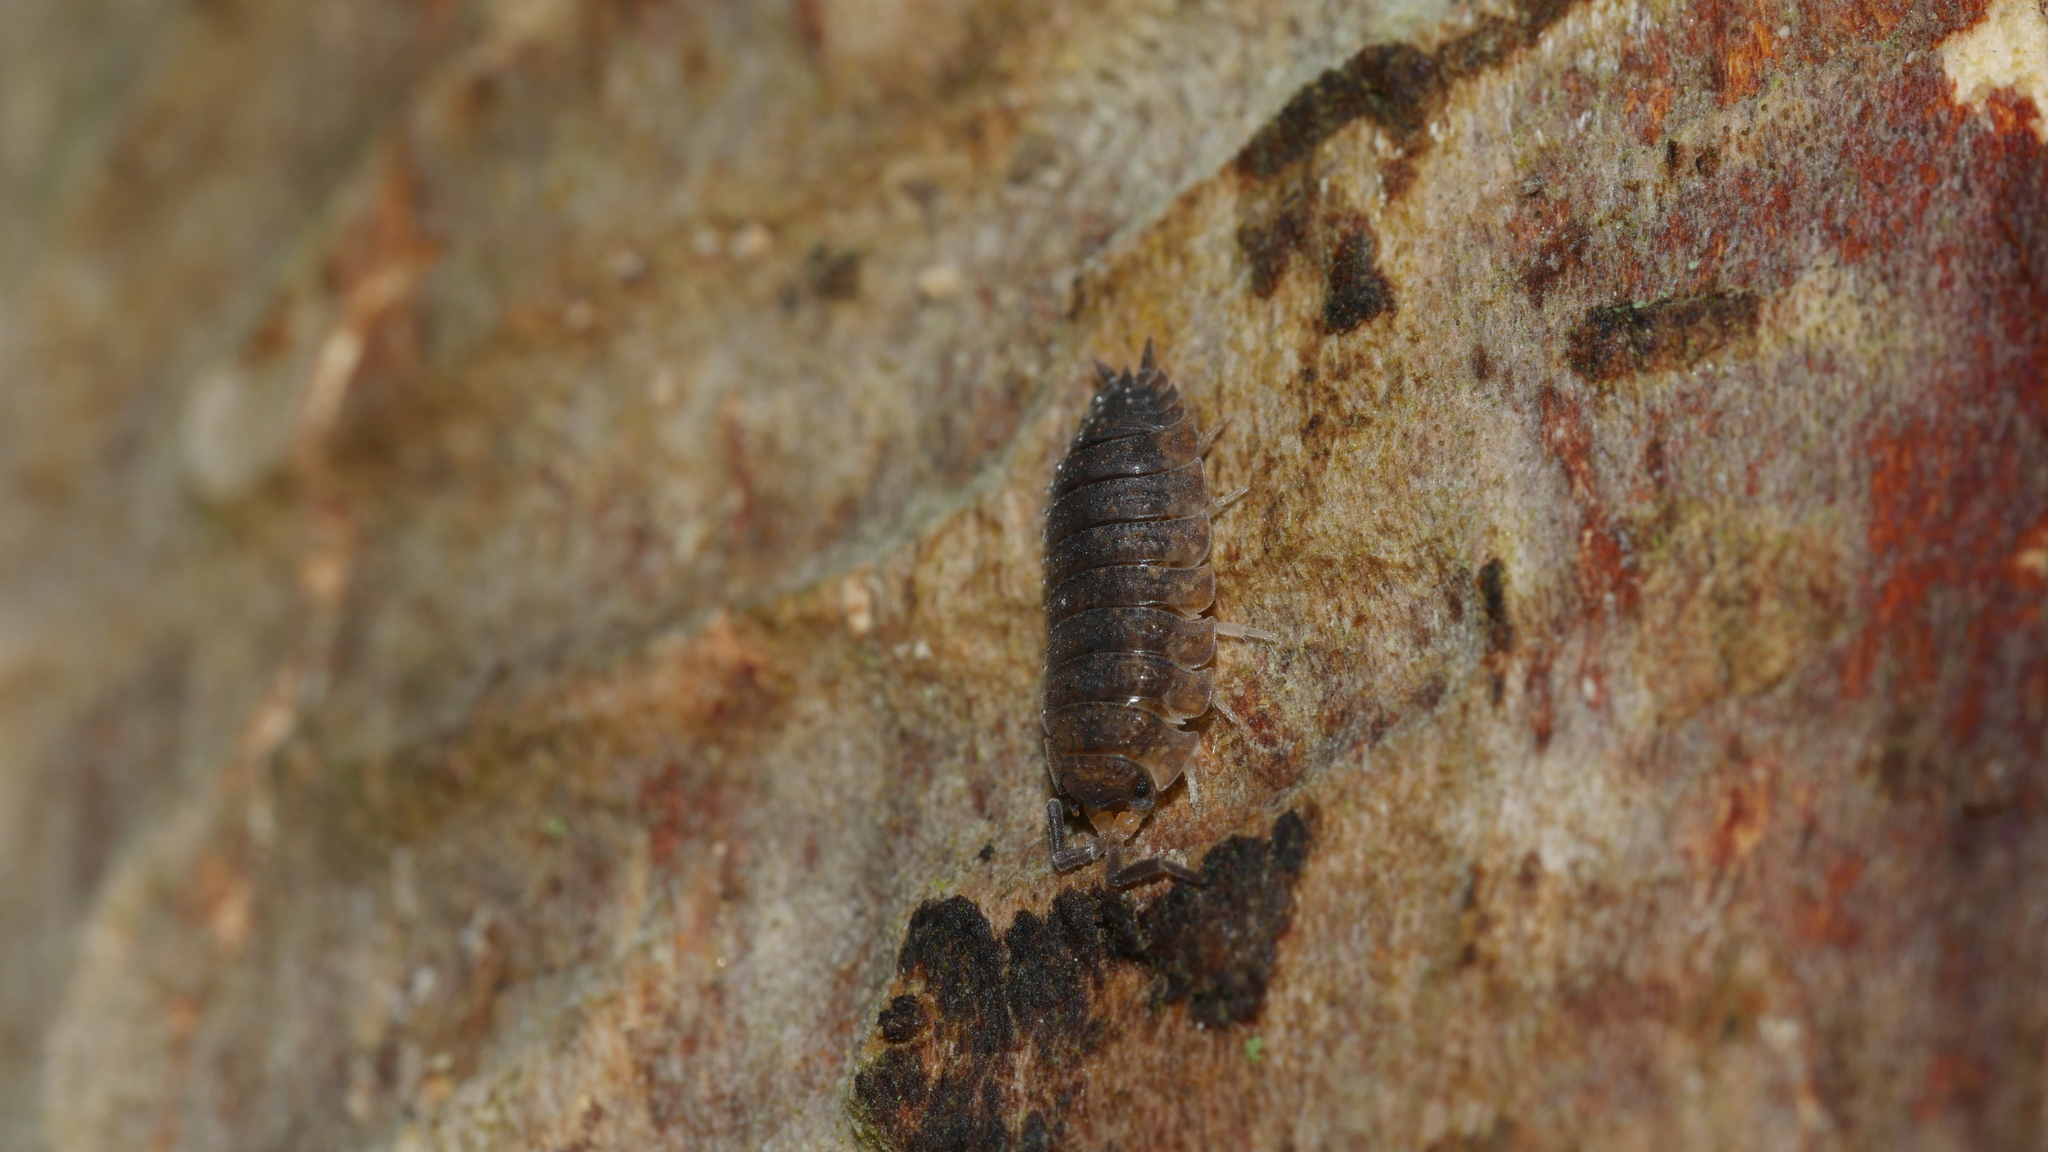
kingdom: Animalia
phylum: Arthropoda
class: Malacostraca
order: Isopoda
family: Porcellionidae
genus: Porcellio
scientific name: Porcellio scaber
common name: Common rough woodlouse
